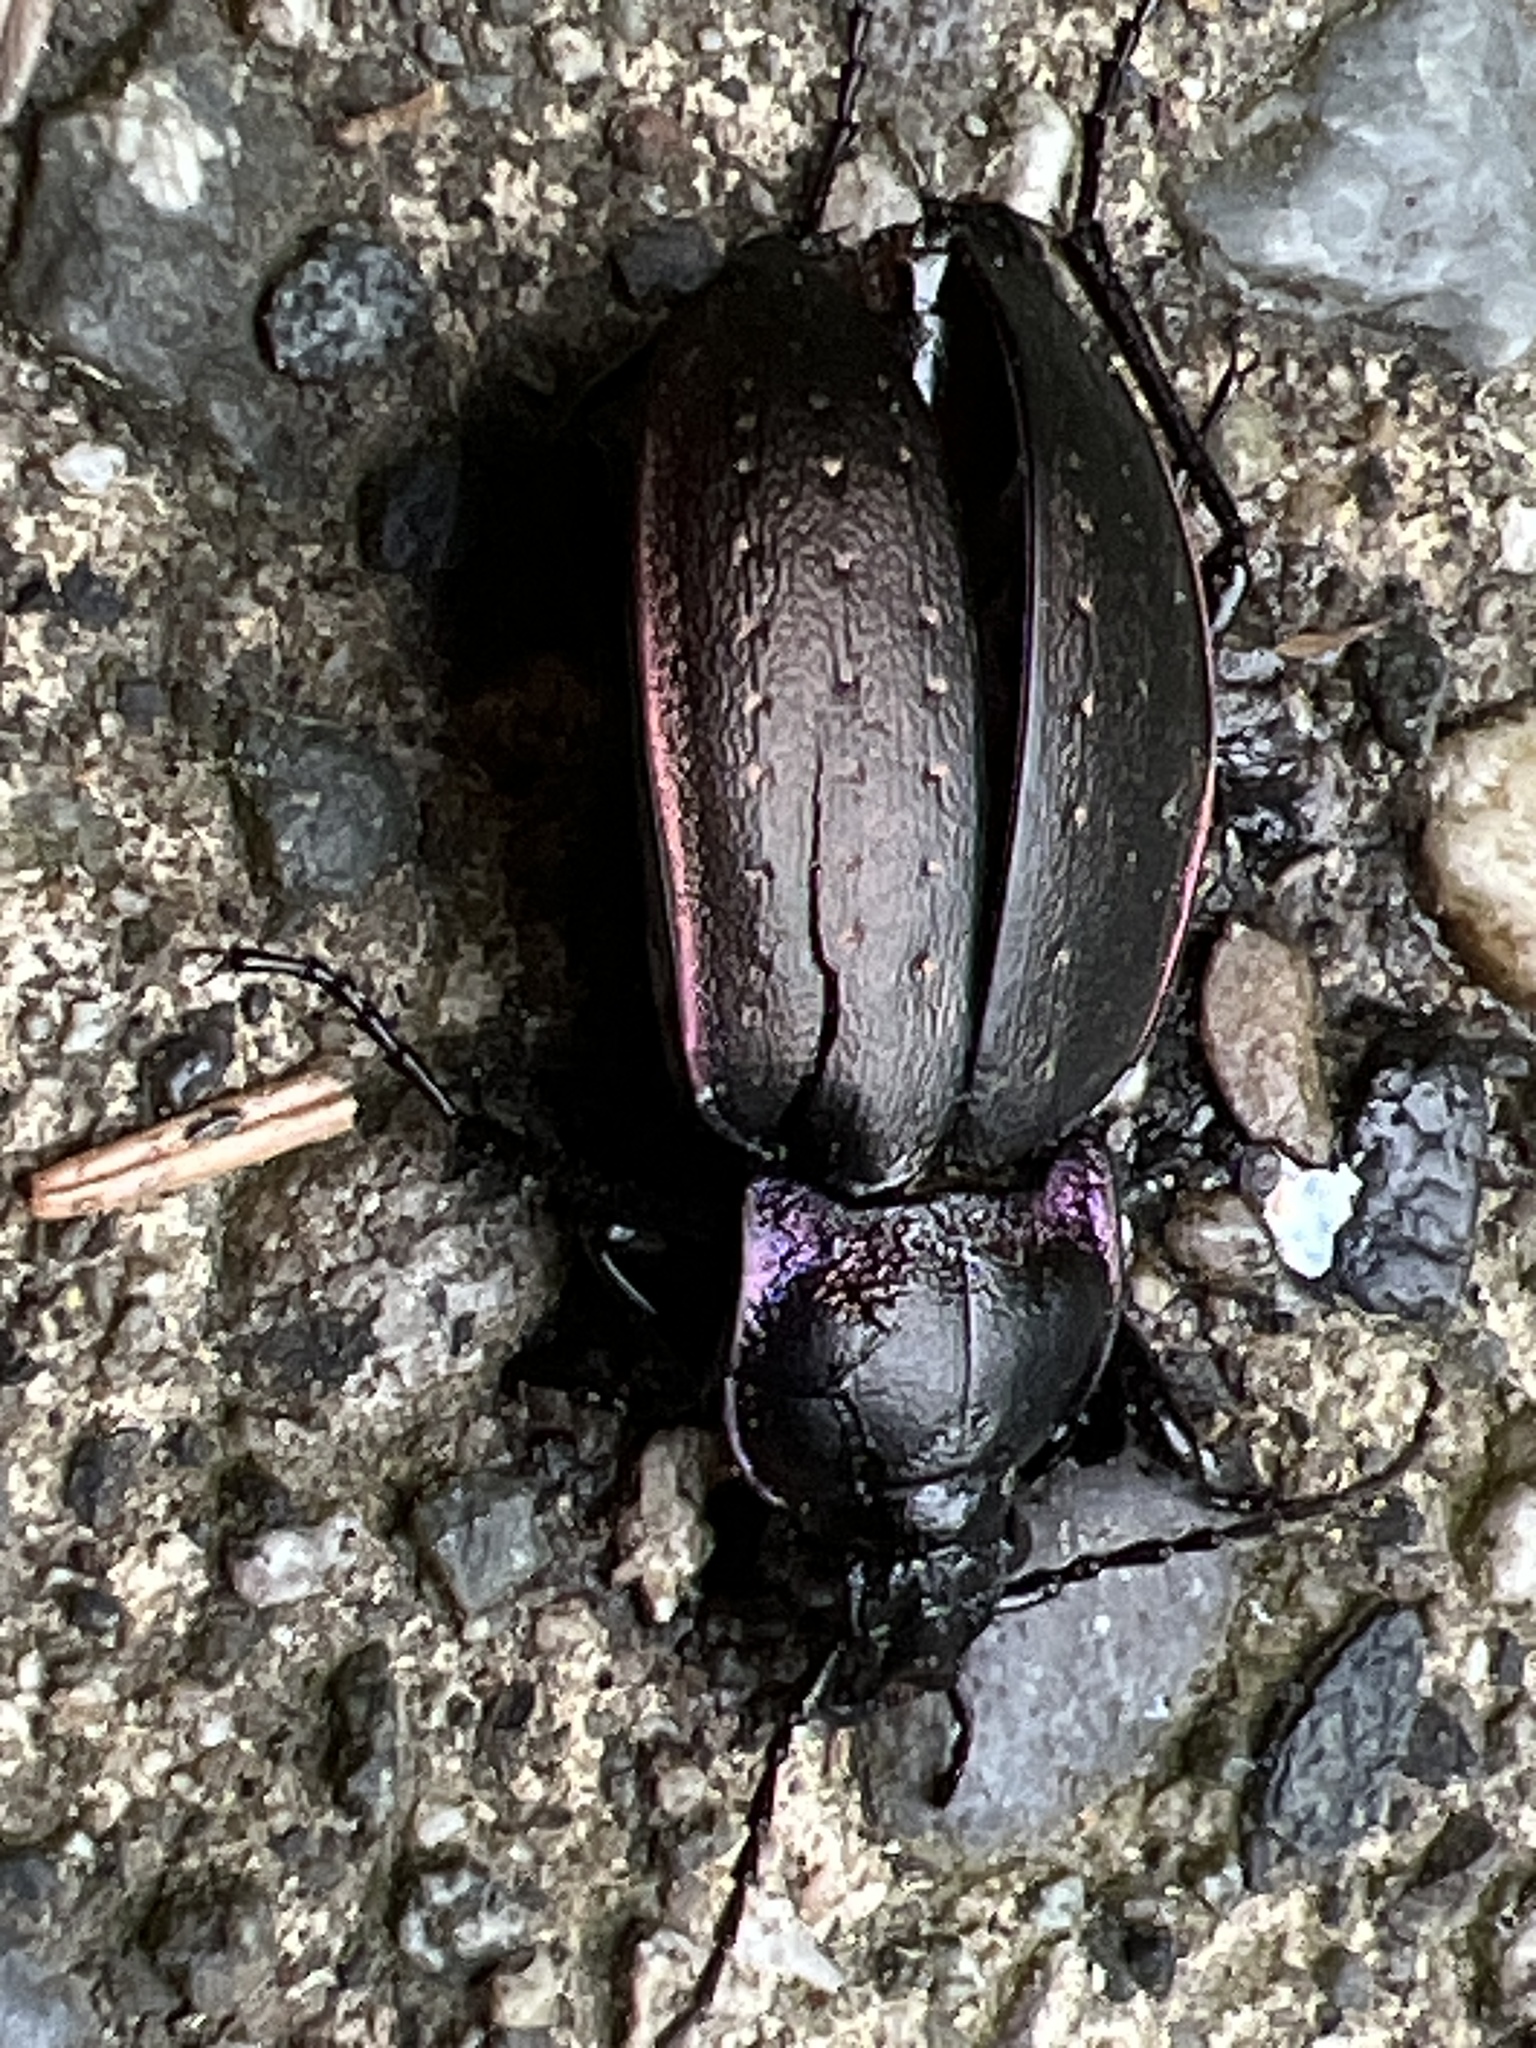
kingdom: Animalia
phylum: Arthropoda
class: Insecta
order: Coleoptera
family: Carabidae
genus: Carabus
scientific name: Carabus nemoralis
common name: European ground beetle
